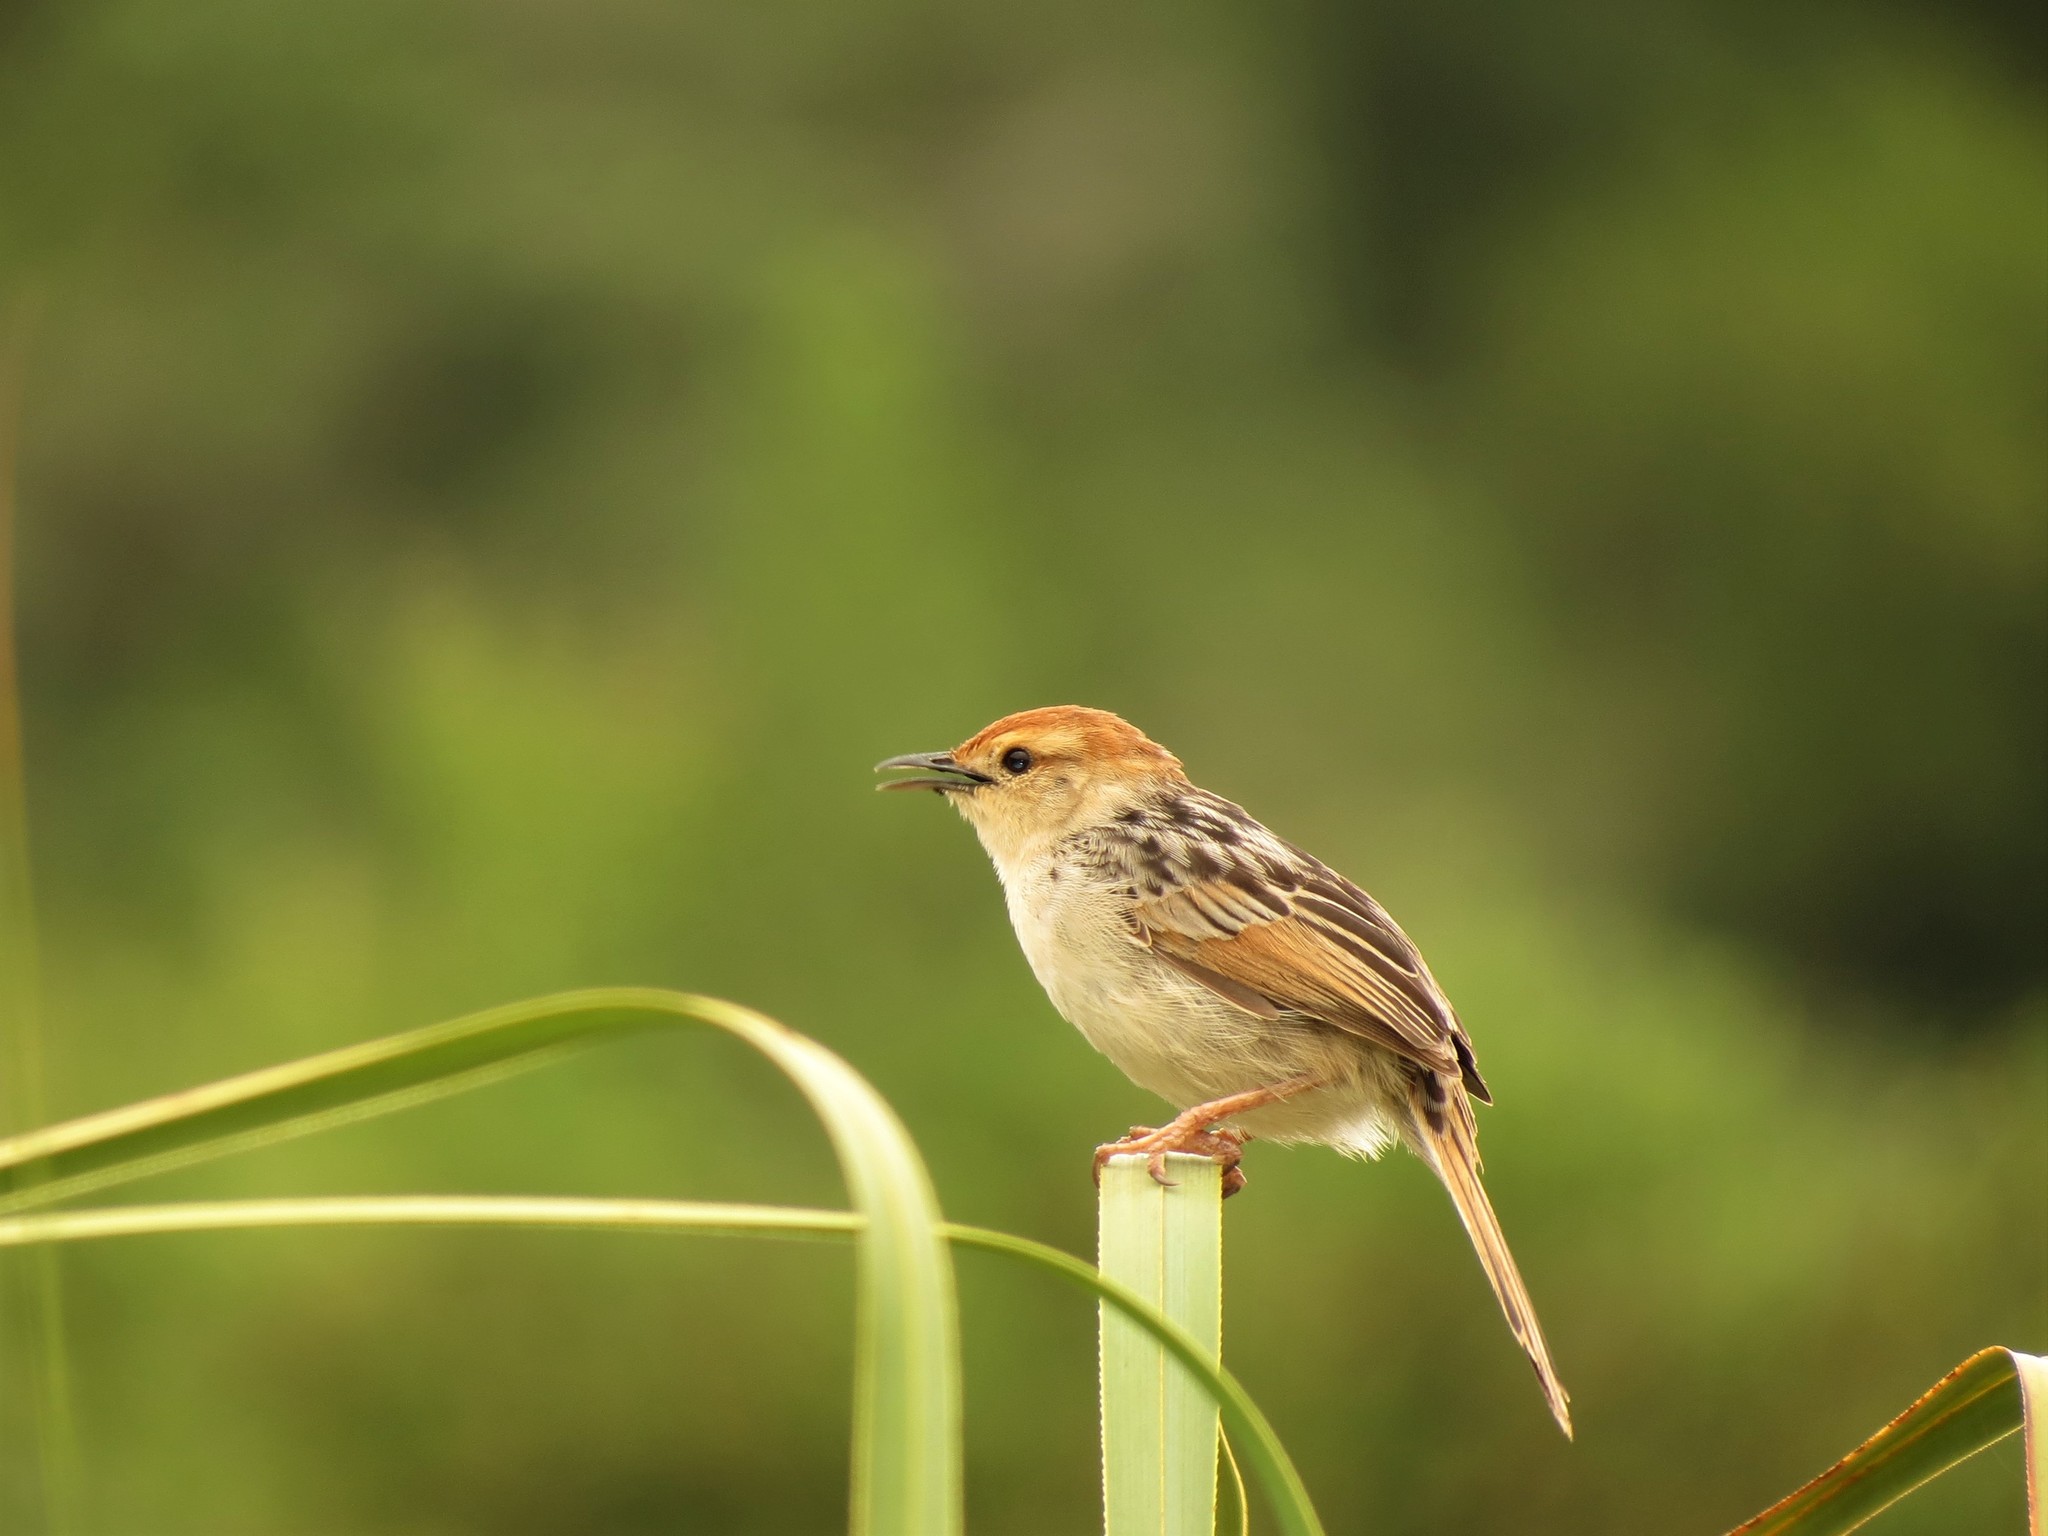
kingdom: Animalia
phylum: Chordata
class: Aves
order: Passeriformes
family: Cisticolidae
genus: Cisticola
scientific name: Cisticola tinniens
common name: Levaillant's cisticola
